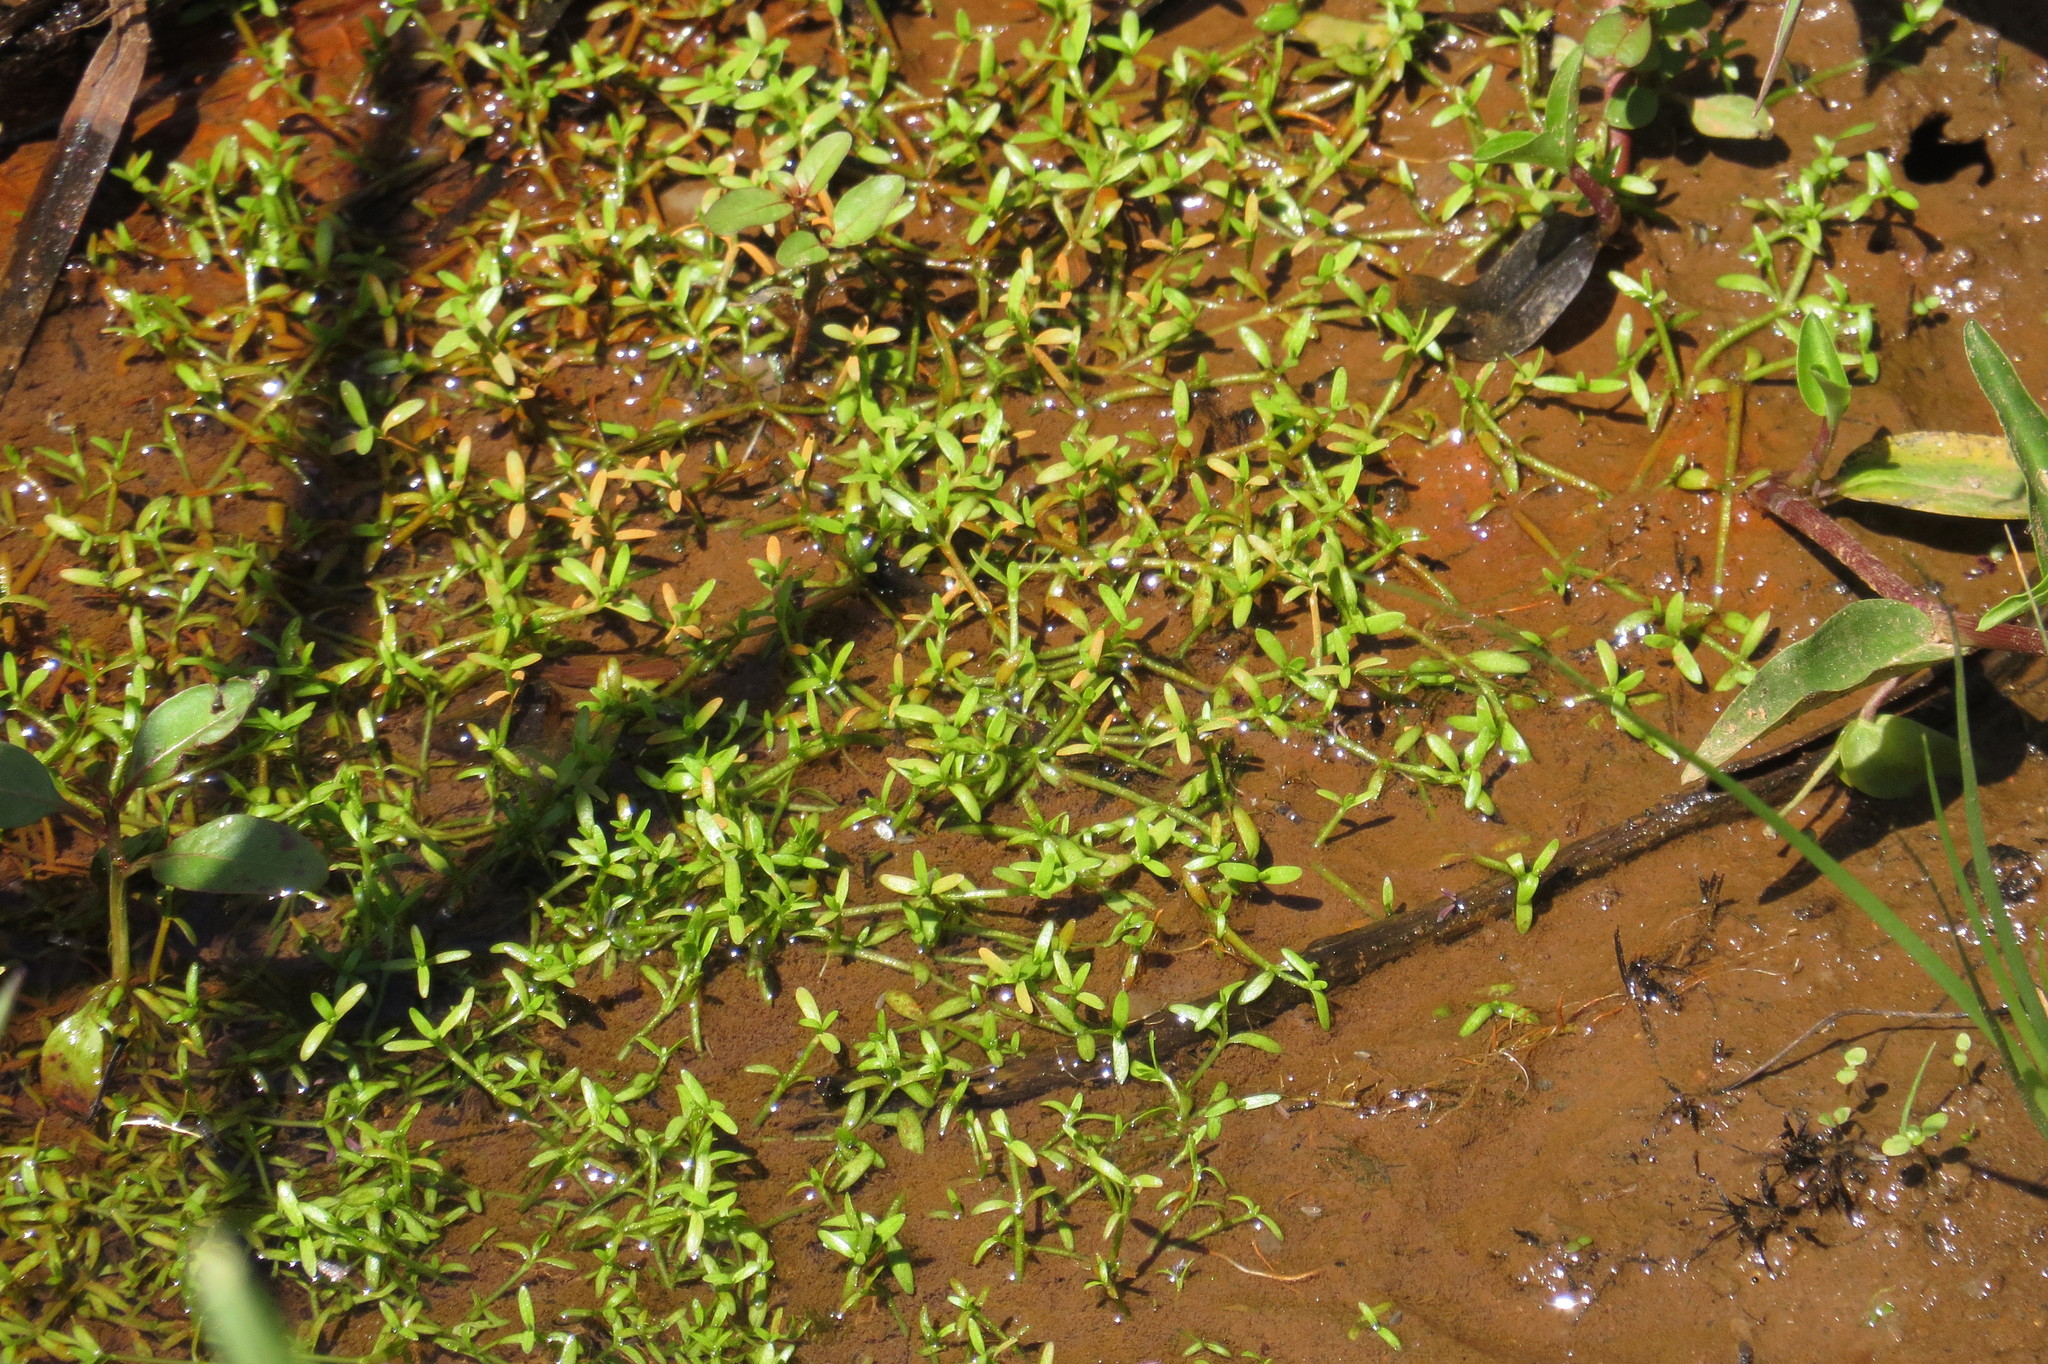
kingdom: Plantae
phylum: Tracheophyta
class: Magnoliopsida
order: Malpighiales
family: Elatinaceae
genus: Elatine
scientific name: Elatine gratioloides
